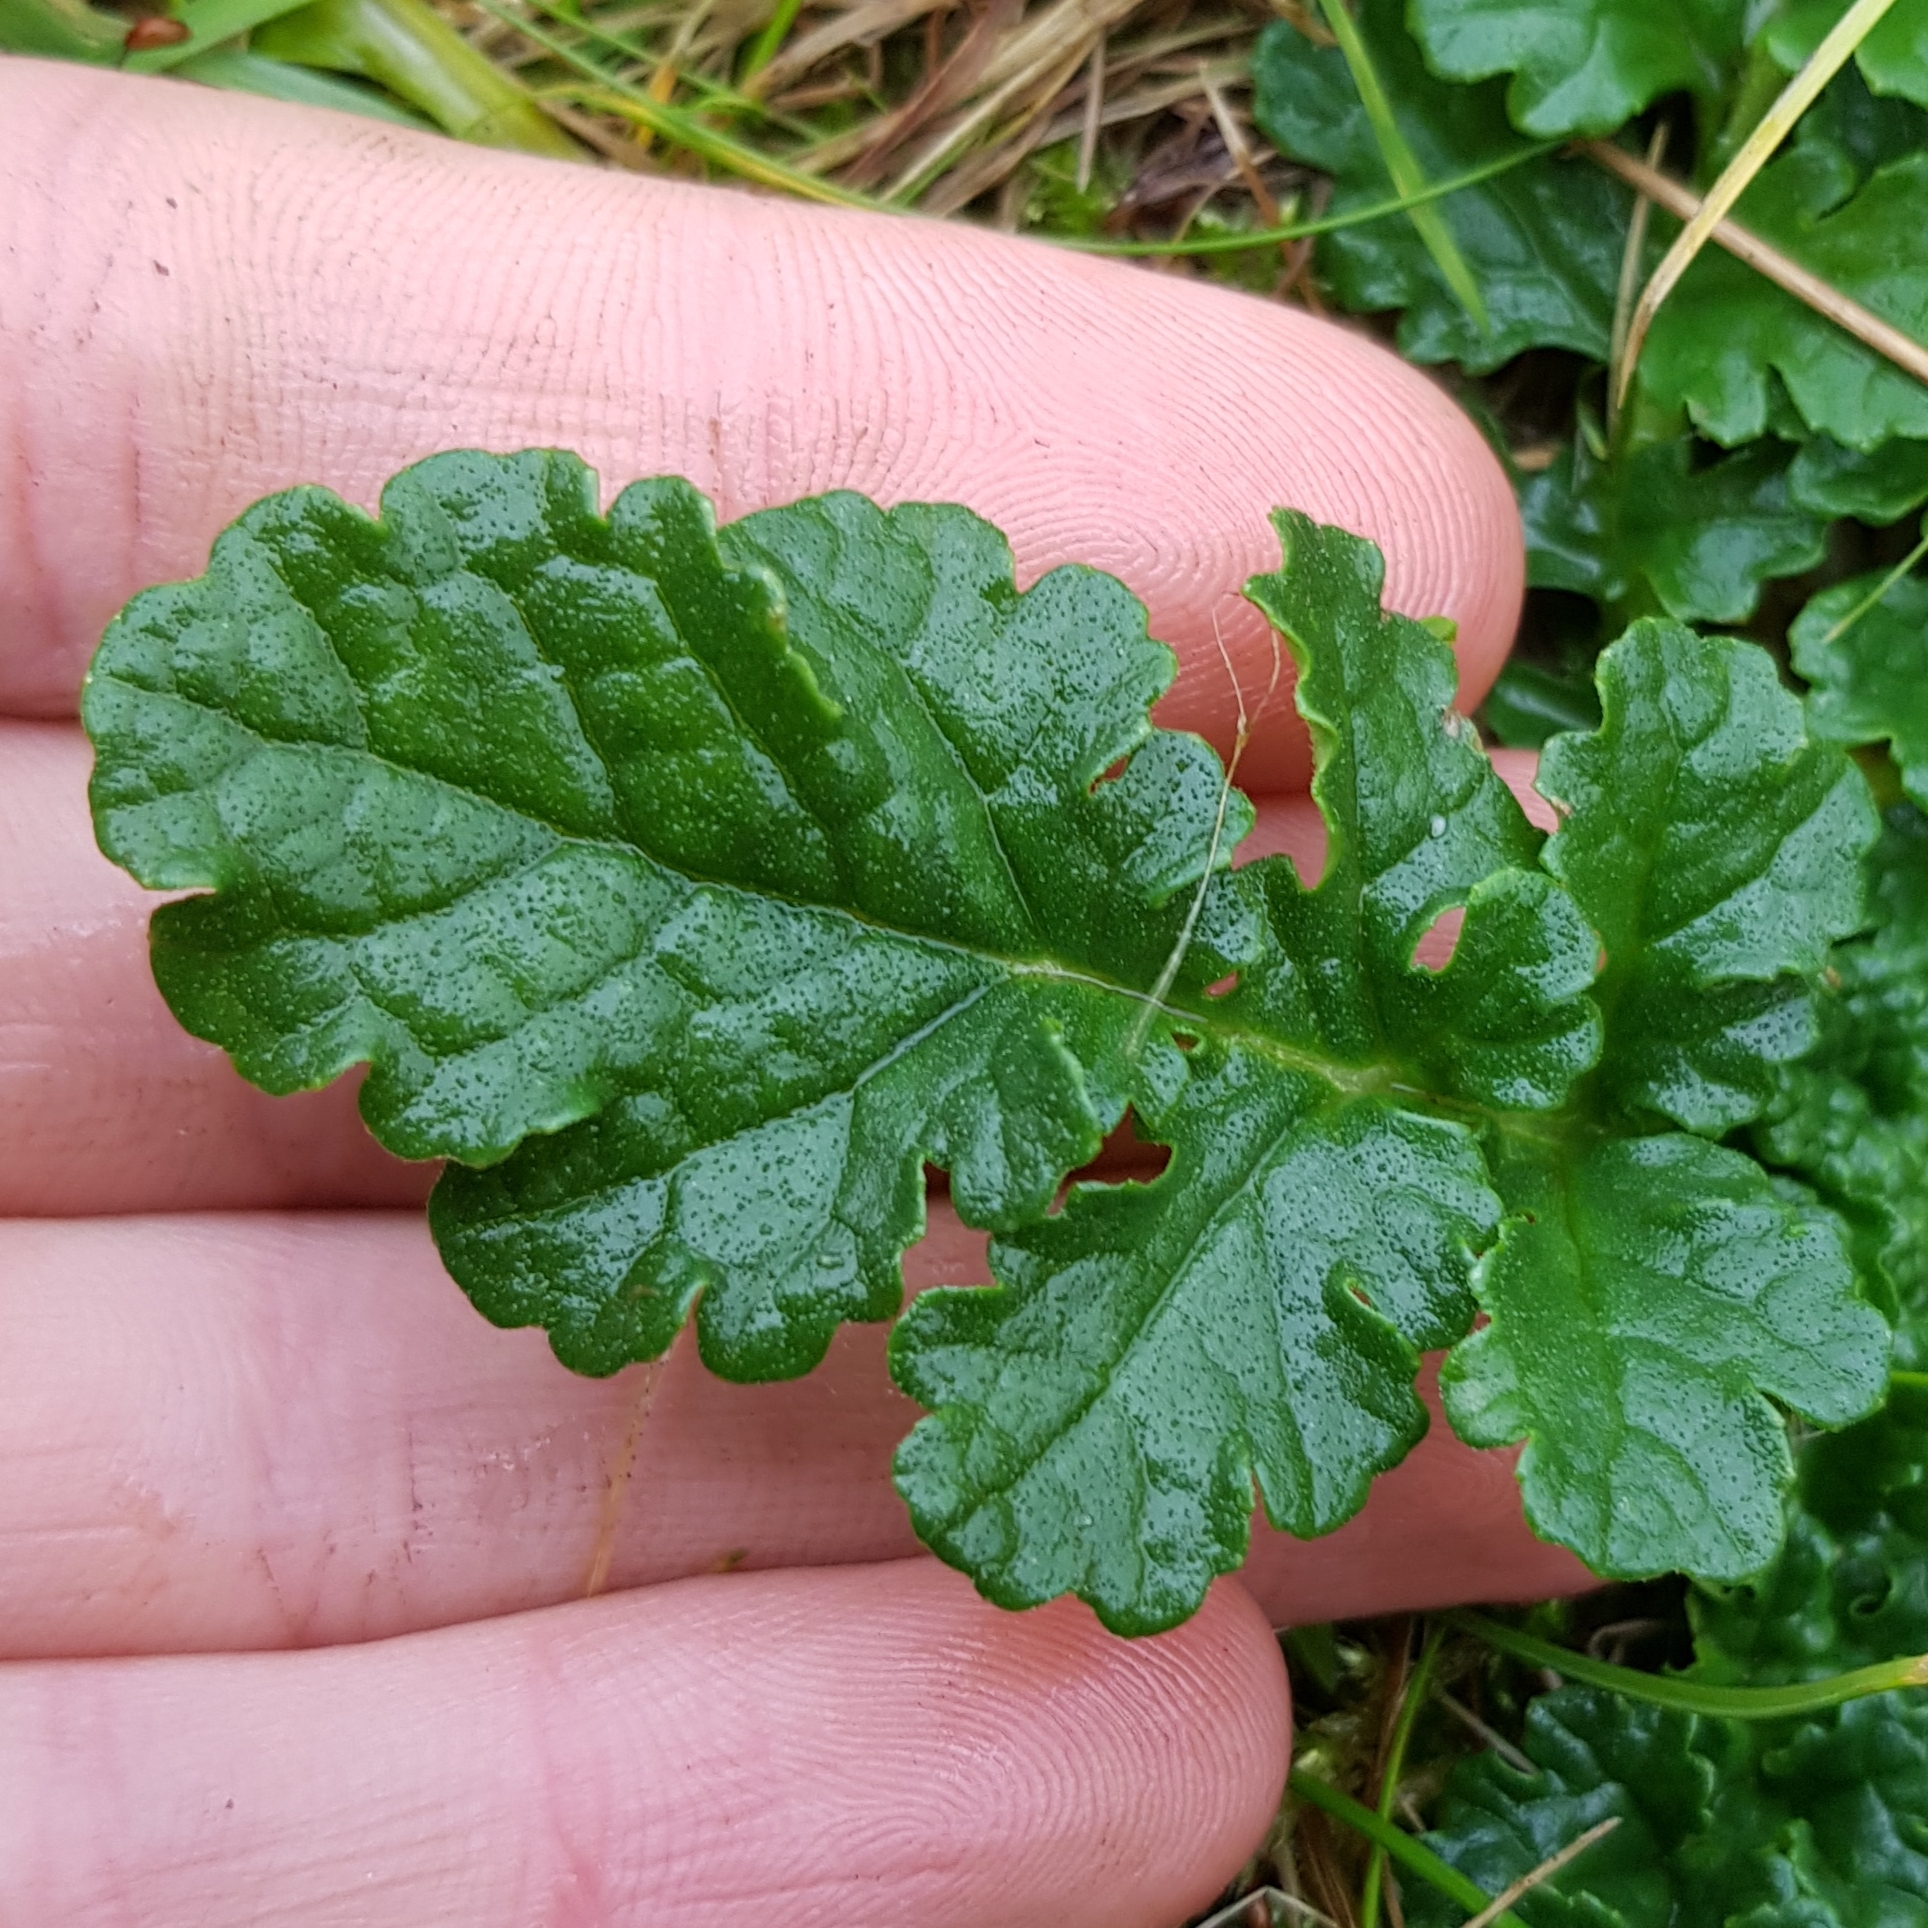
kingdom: Plantae
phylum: Tracheophyta
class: Magnoliopsida
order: Asterales
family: Asteraceae
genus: Jacobaea
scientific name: Jacobaea vulgaris
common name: Stinking willie
